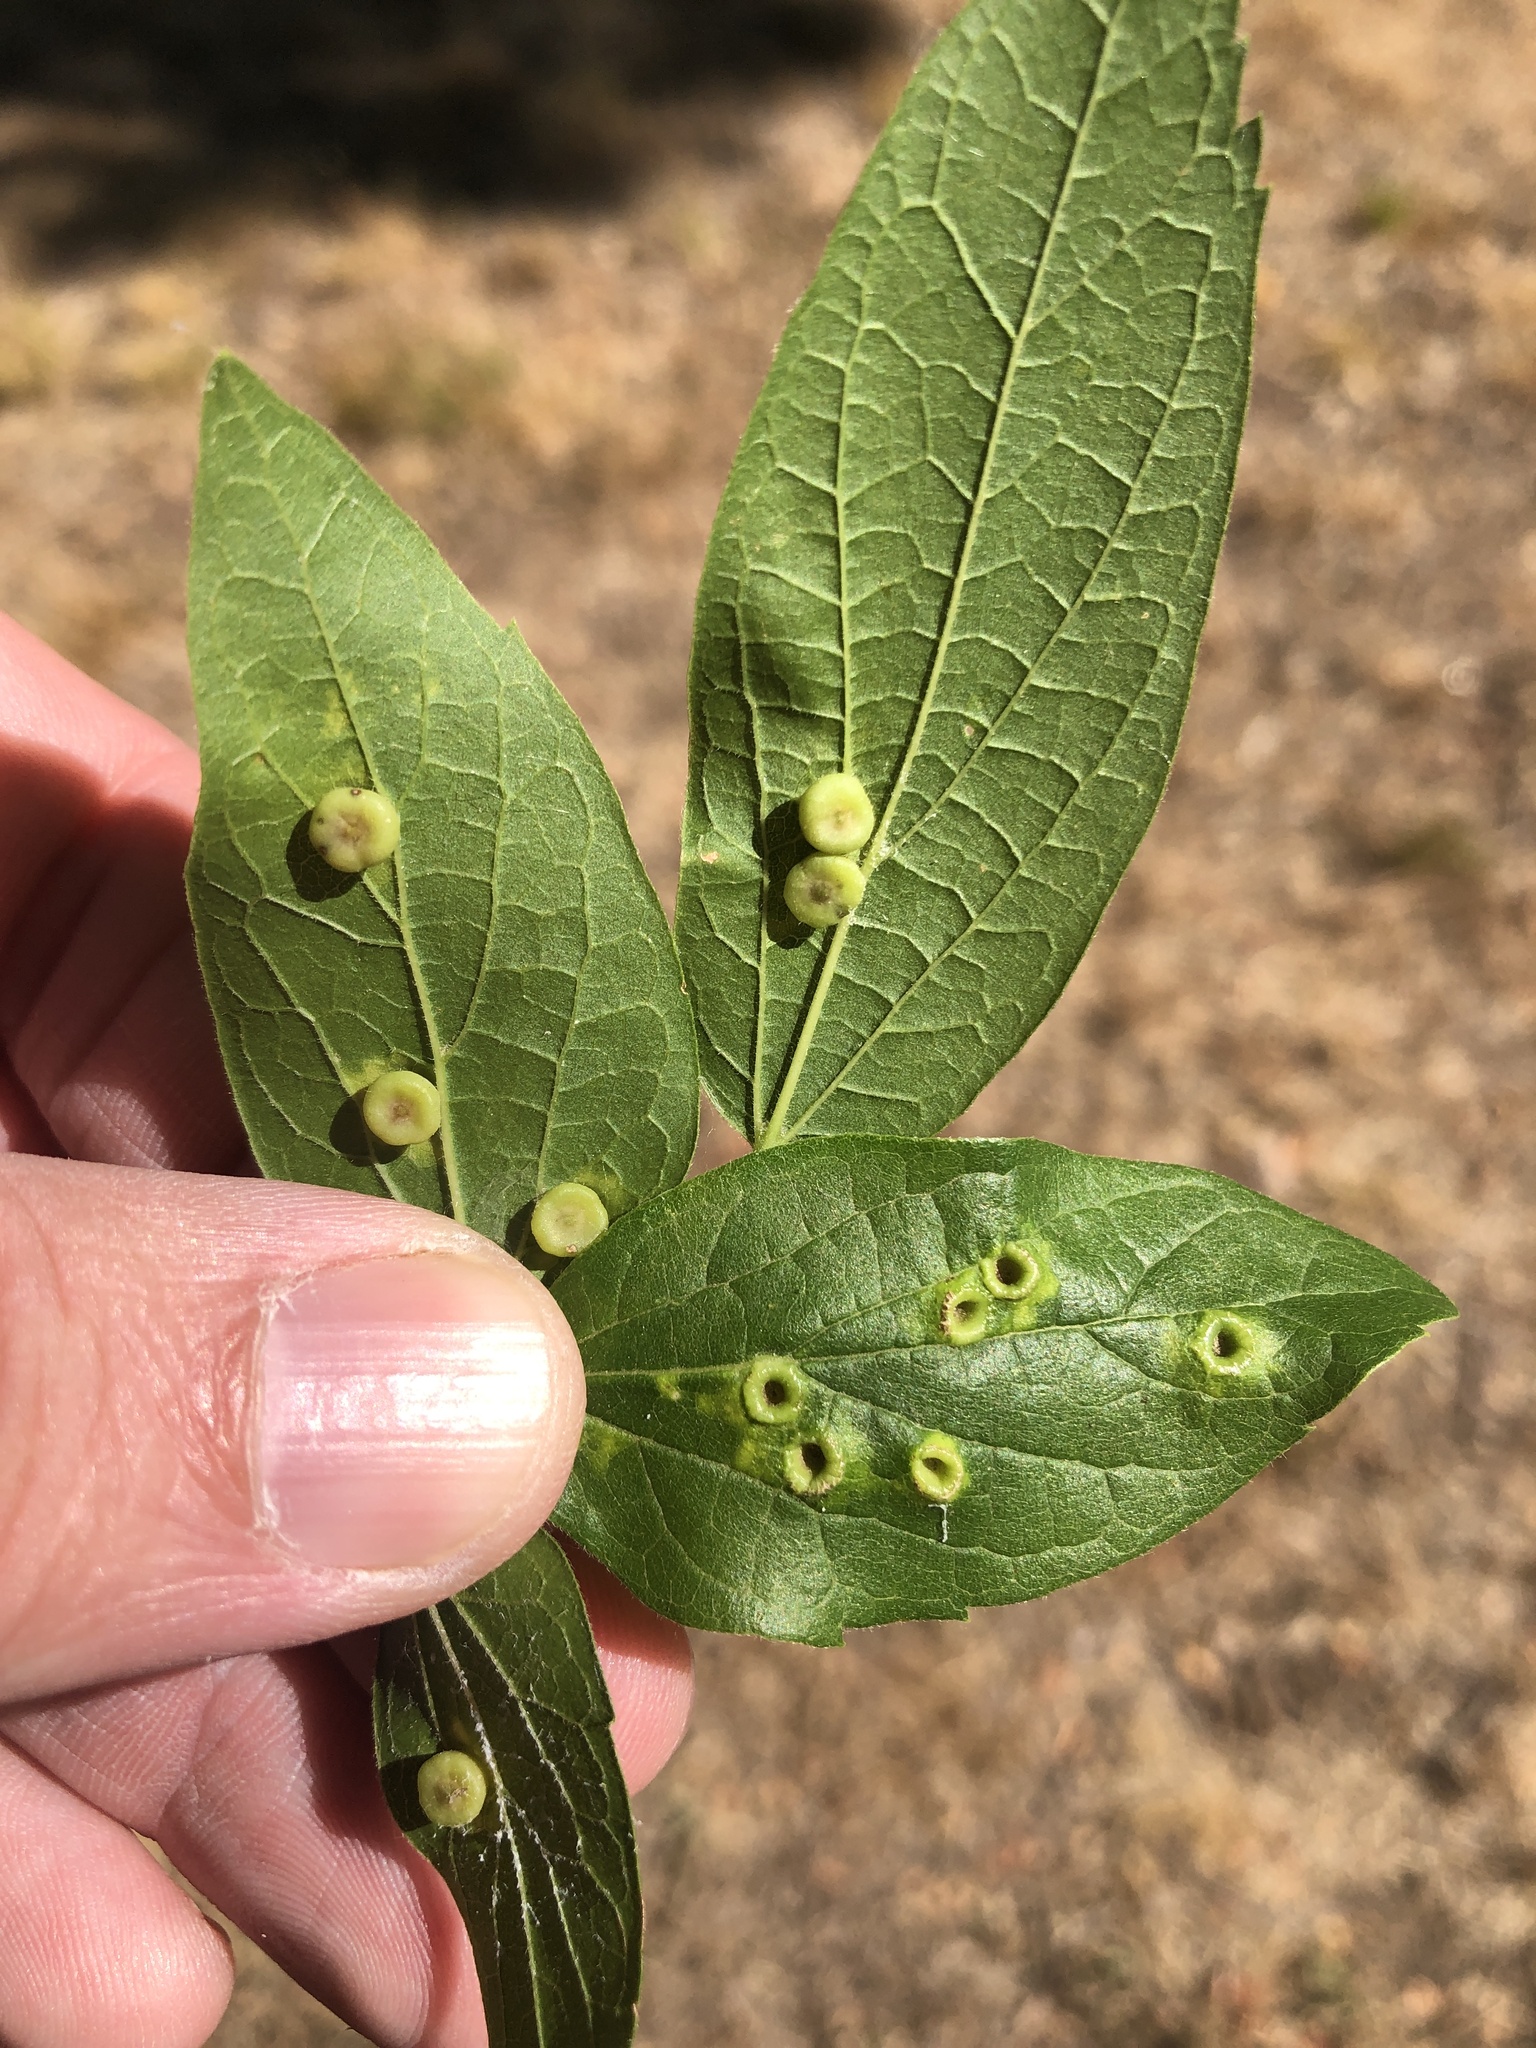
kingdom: Animalia
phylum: Arthropoda
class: Insecta
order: Hemiptera
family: Aphalaridae
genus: Pachypsylla
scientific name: Pachypsylla celtidismamma
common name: Hackberry nipplegall psyllid
